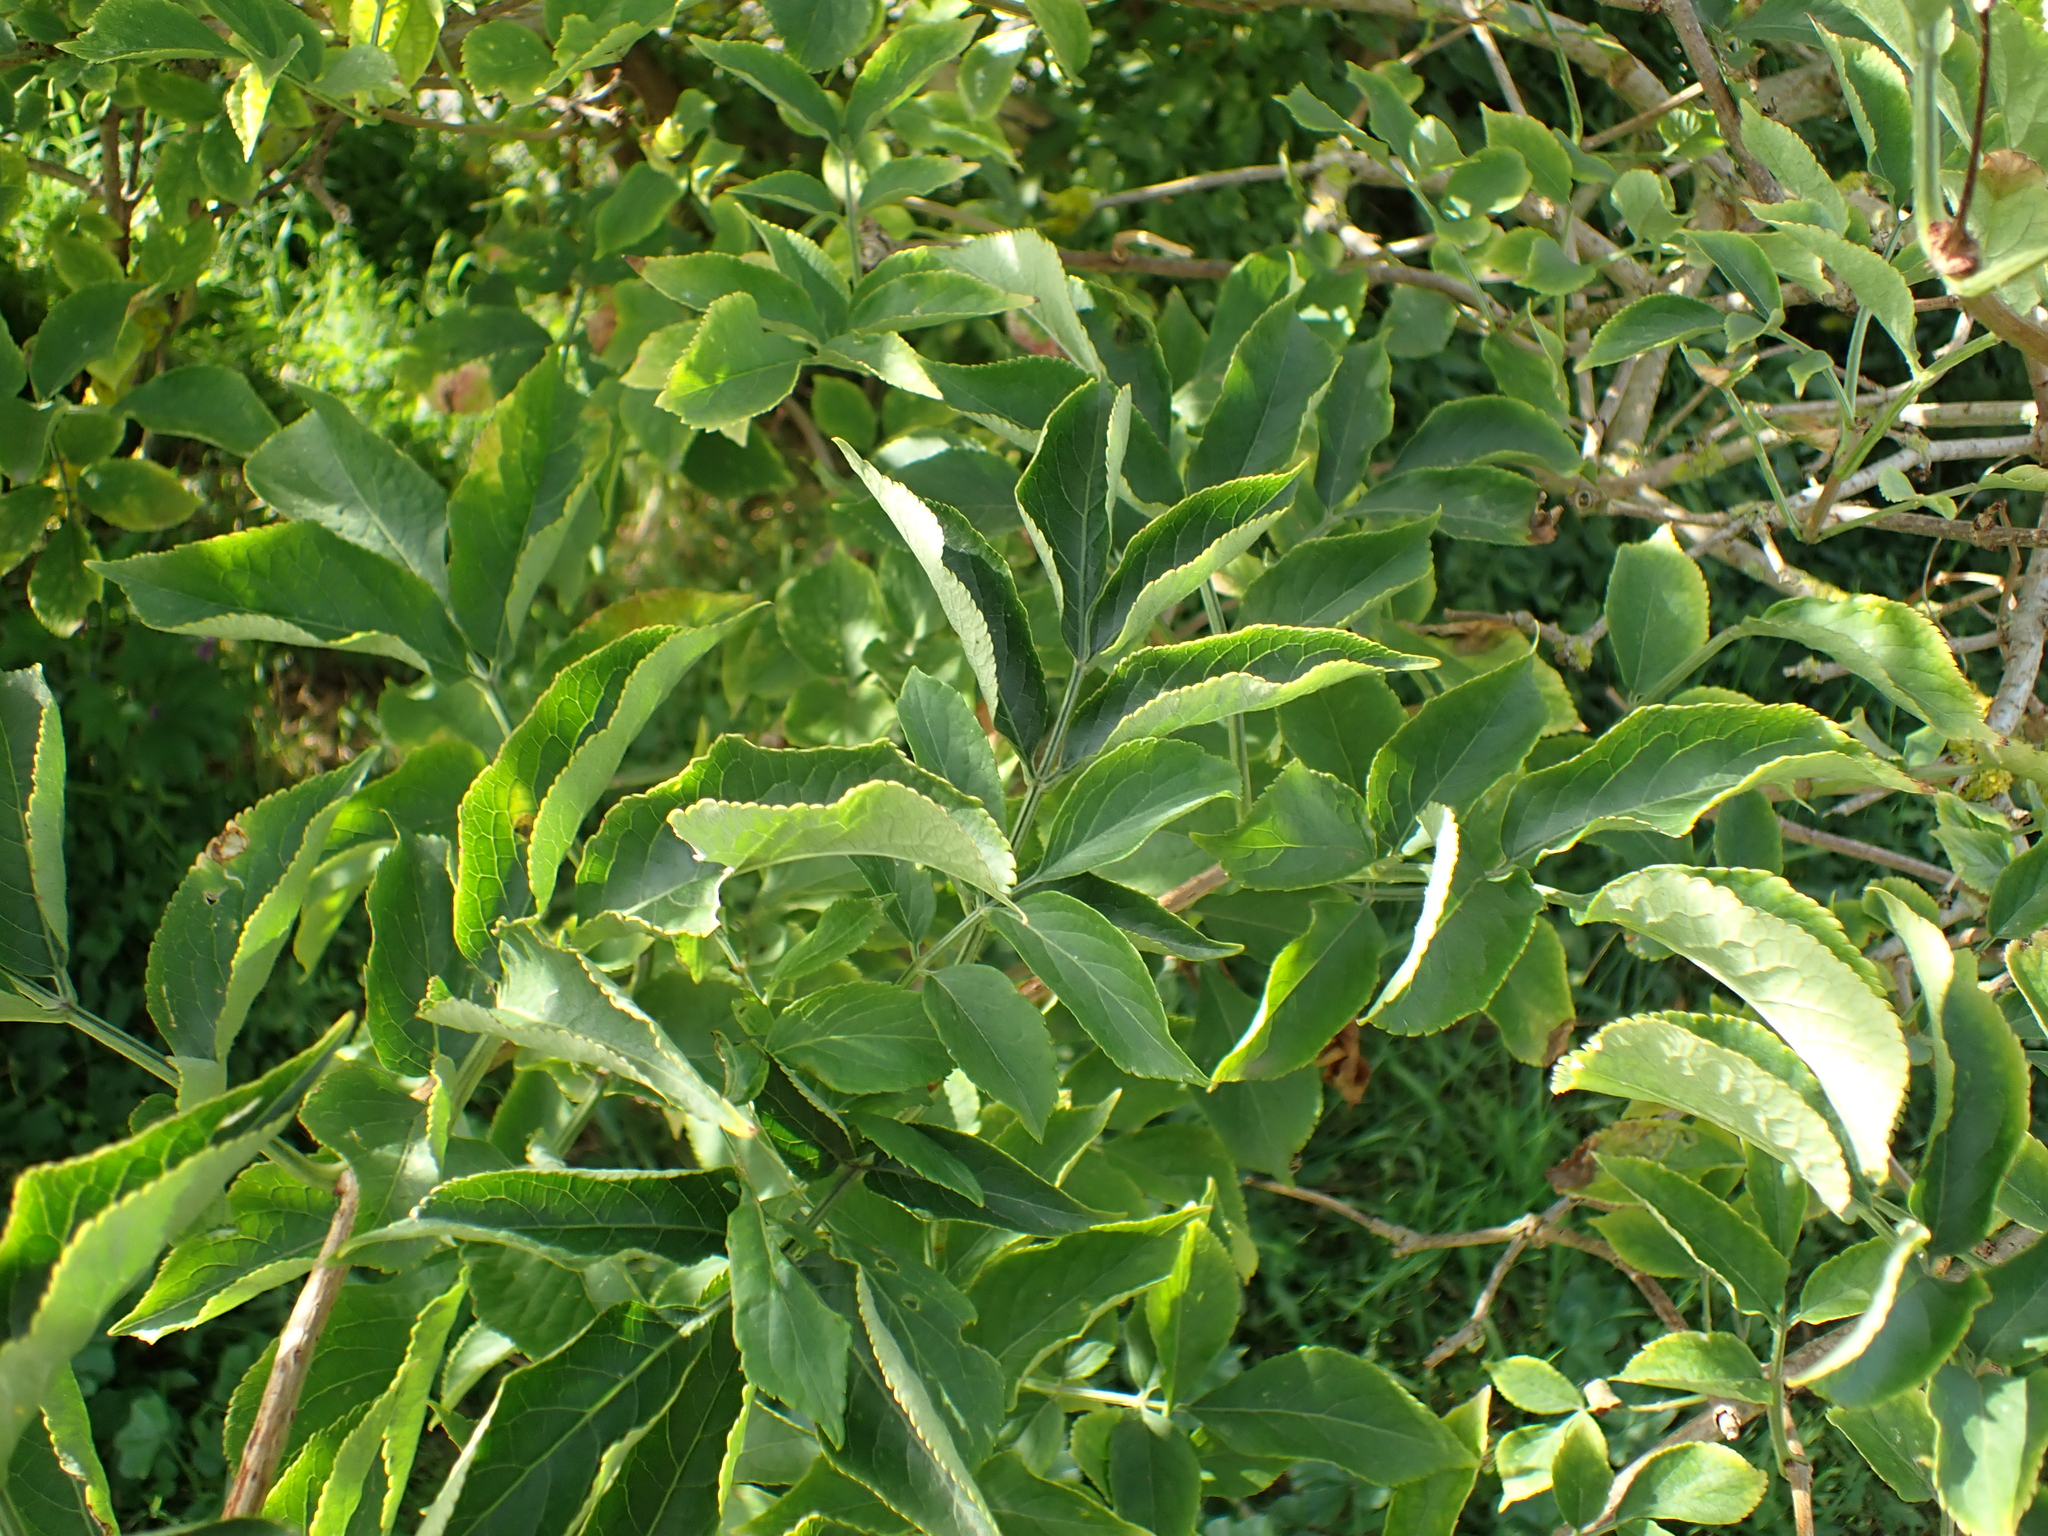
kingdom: Plantae
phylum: Tracheophyta
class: Magnoliopsida
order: Dipsacales
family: Viburnaceae
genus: Sambucus
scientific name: Sambucus nigra
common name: Elder
